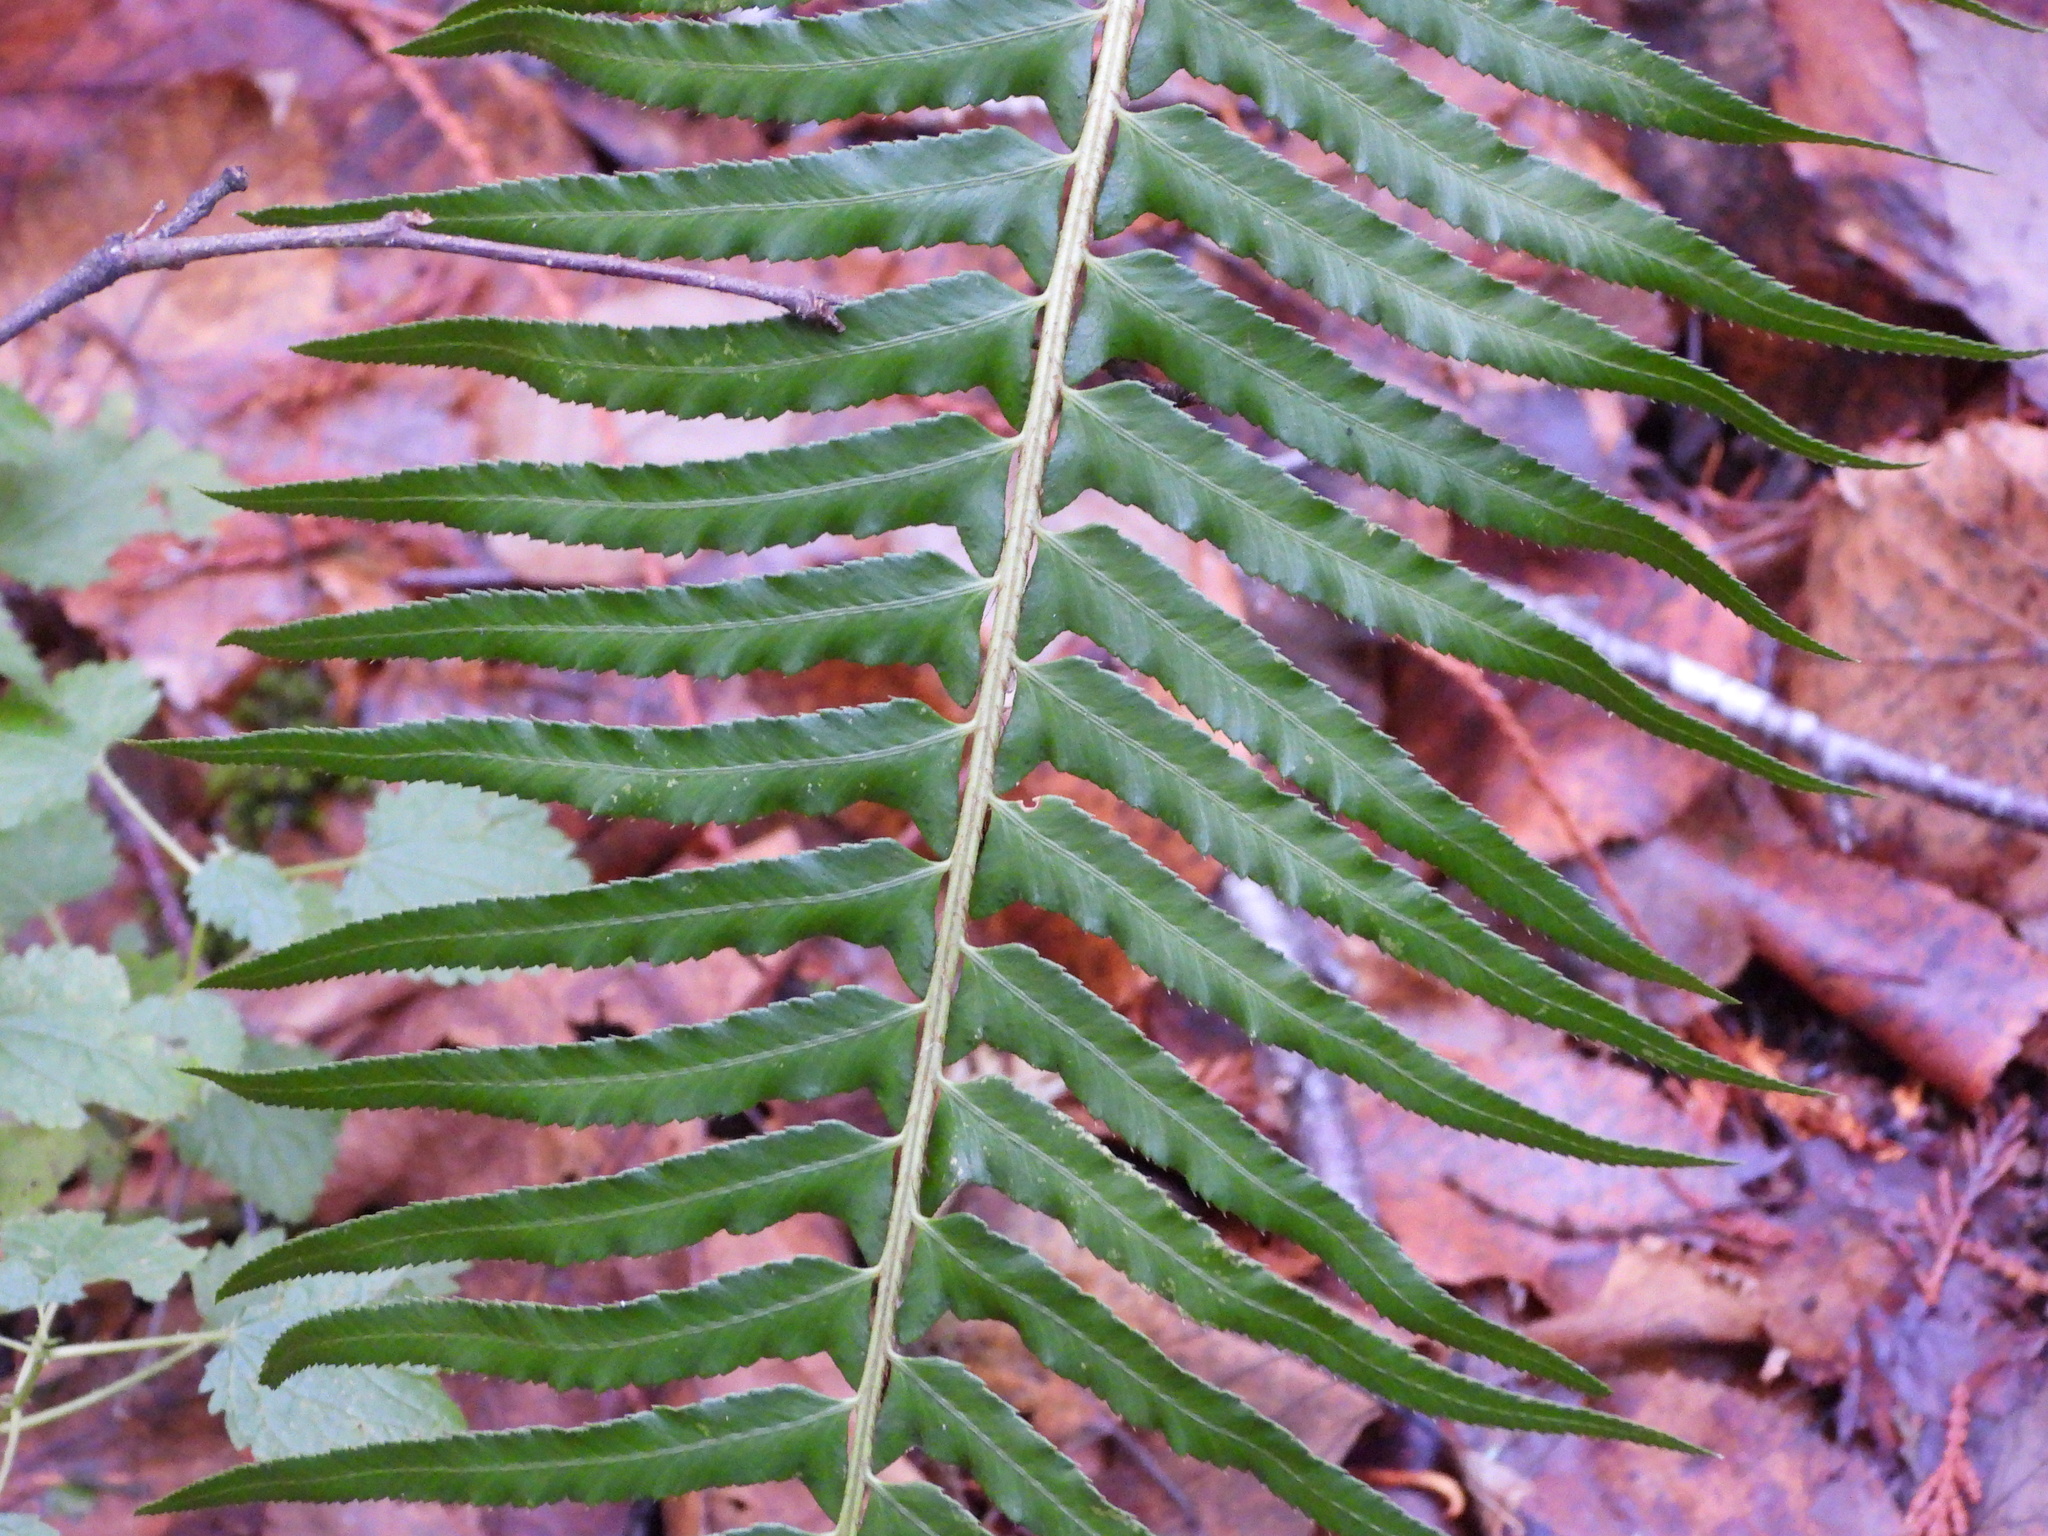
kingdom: Plantae
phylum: Tracheophyta
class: Polypodiopsida
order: Polypodiales
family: Dryopteridaceae
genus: Polystichum
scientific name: Polystichum munitum
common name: Western sword-fern
